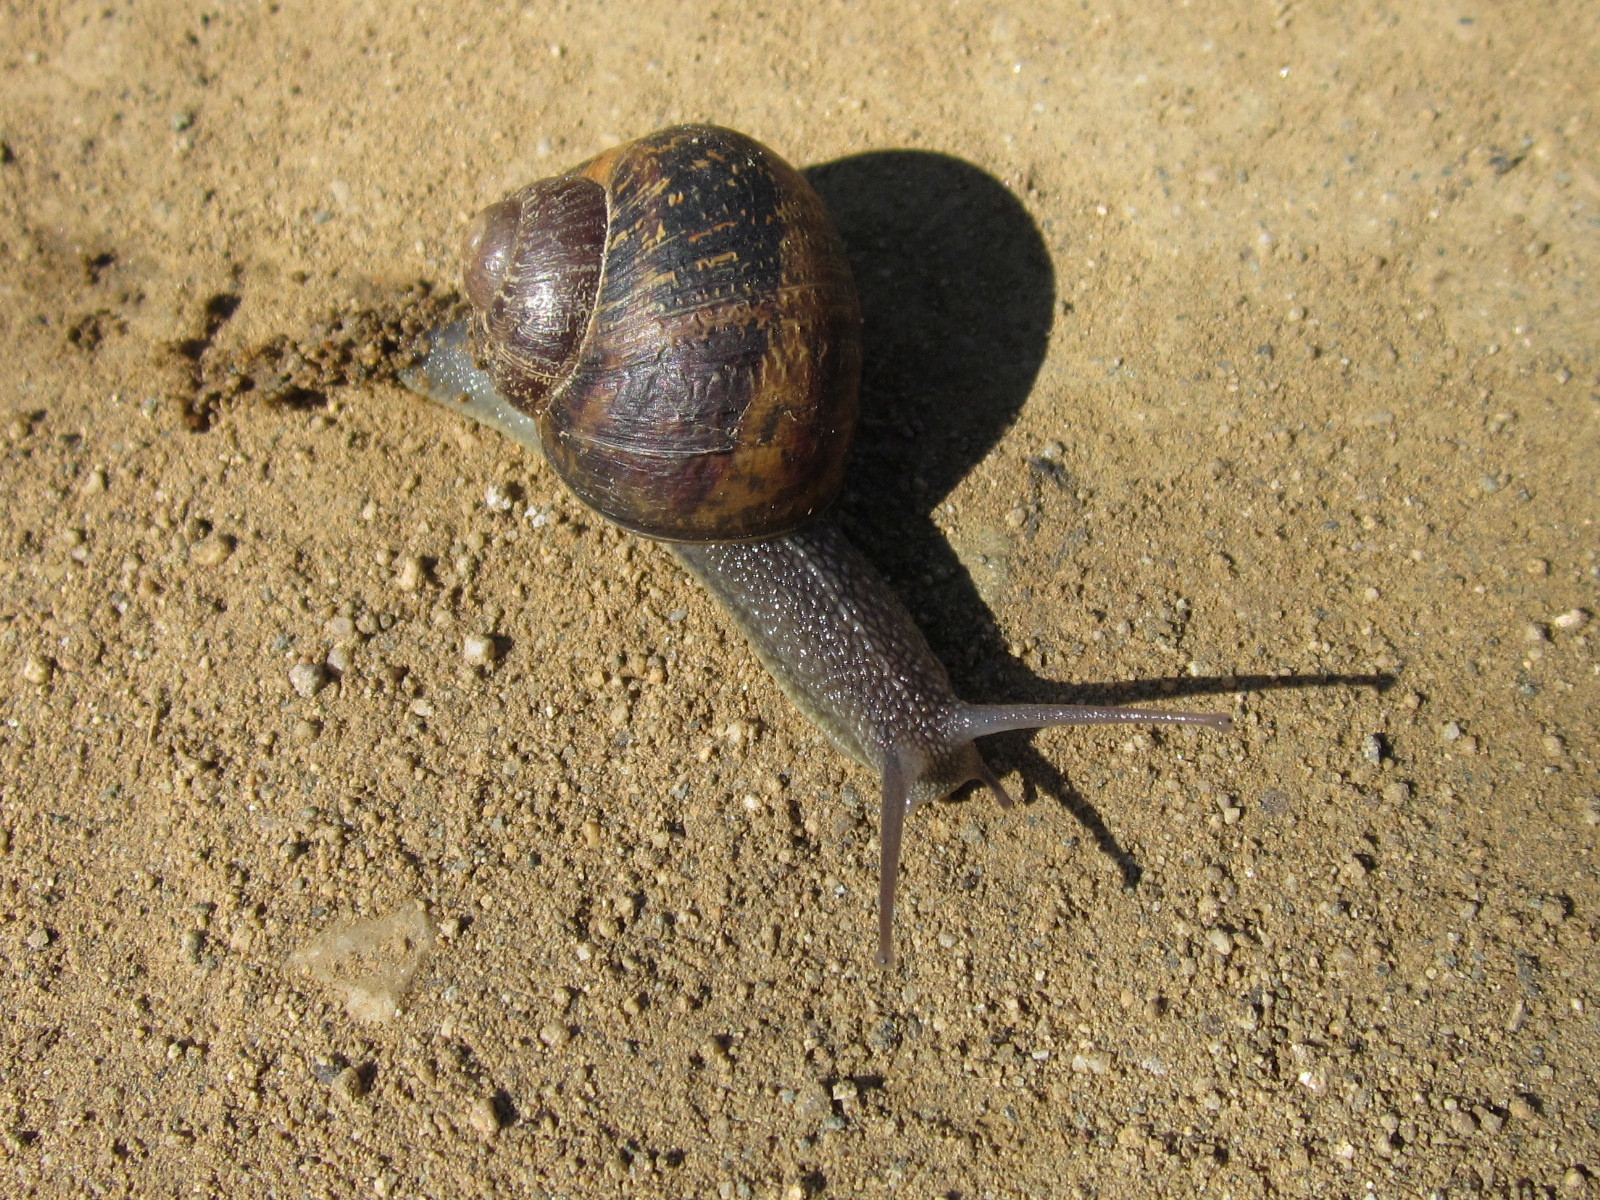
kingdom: Animalia
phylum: Mollusca
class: Gastropoda
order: Stylommatophora
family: Helicidae
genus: Cornu
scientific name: Cornu aspersum
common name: Brown garden snail
